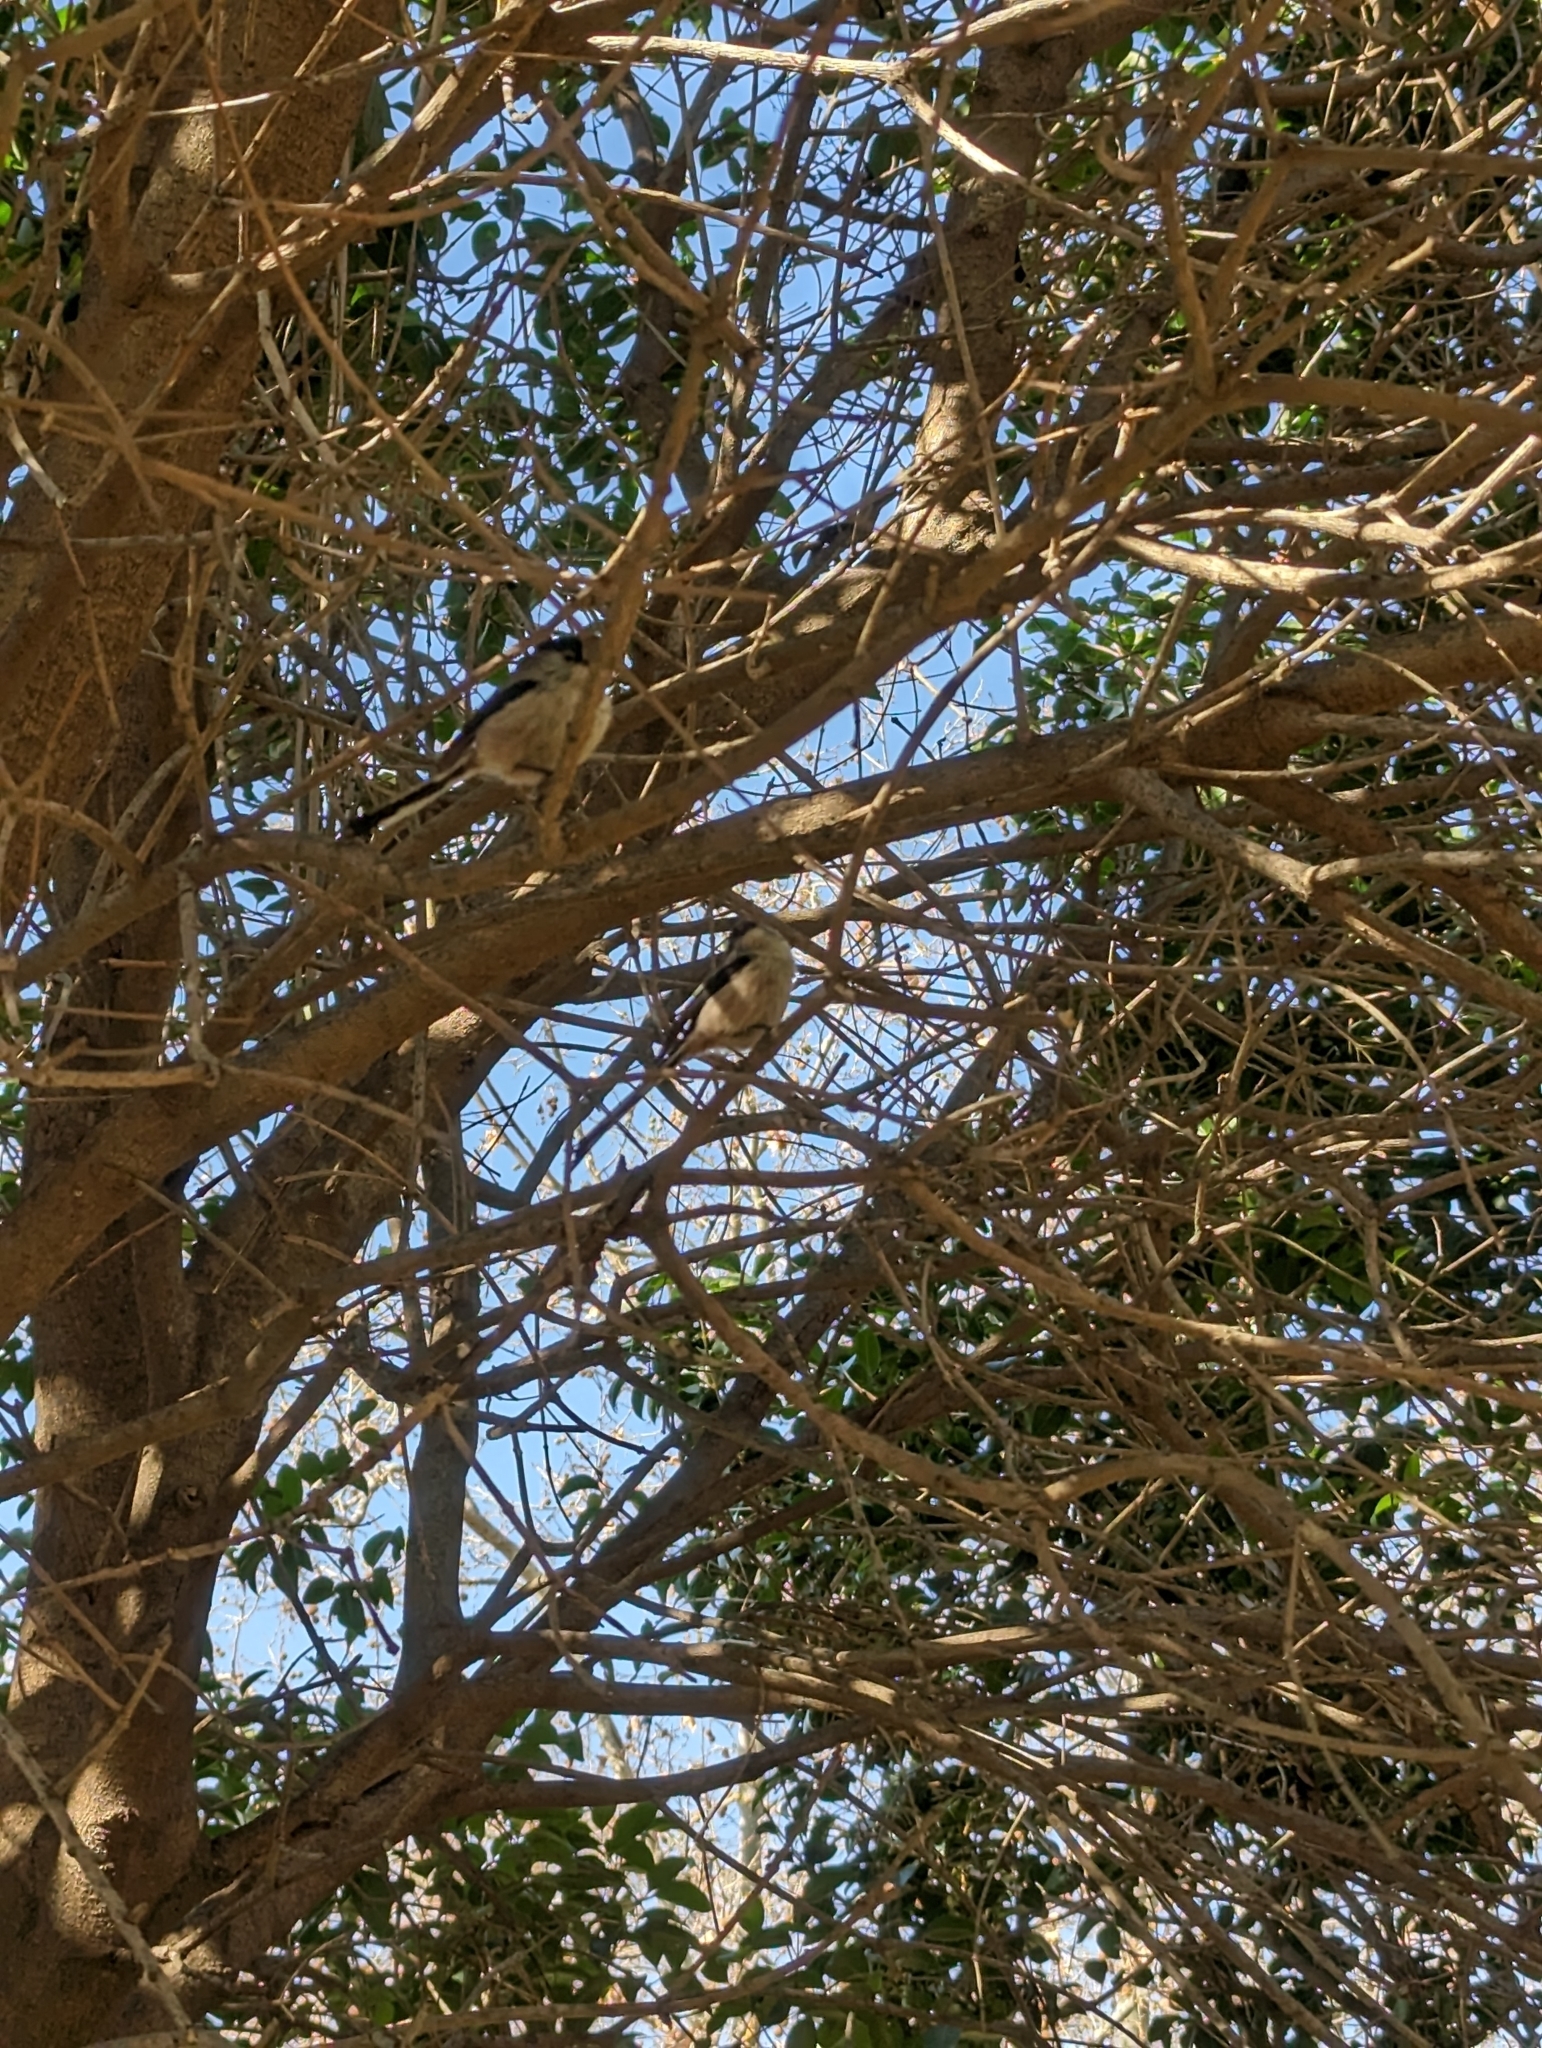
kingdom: Animalia
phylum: Chordata
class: Aves
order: Passeriformes
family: Aegithalidae
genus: Aegithalos
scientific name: Aegithalos caudatus
